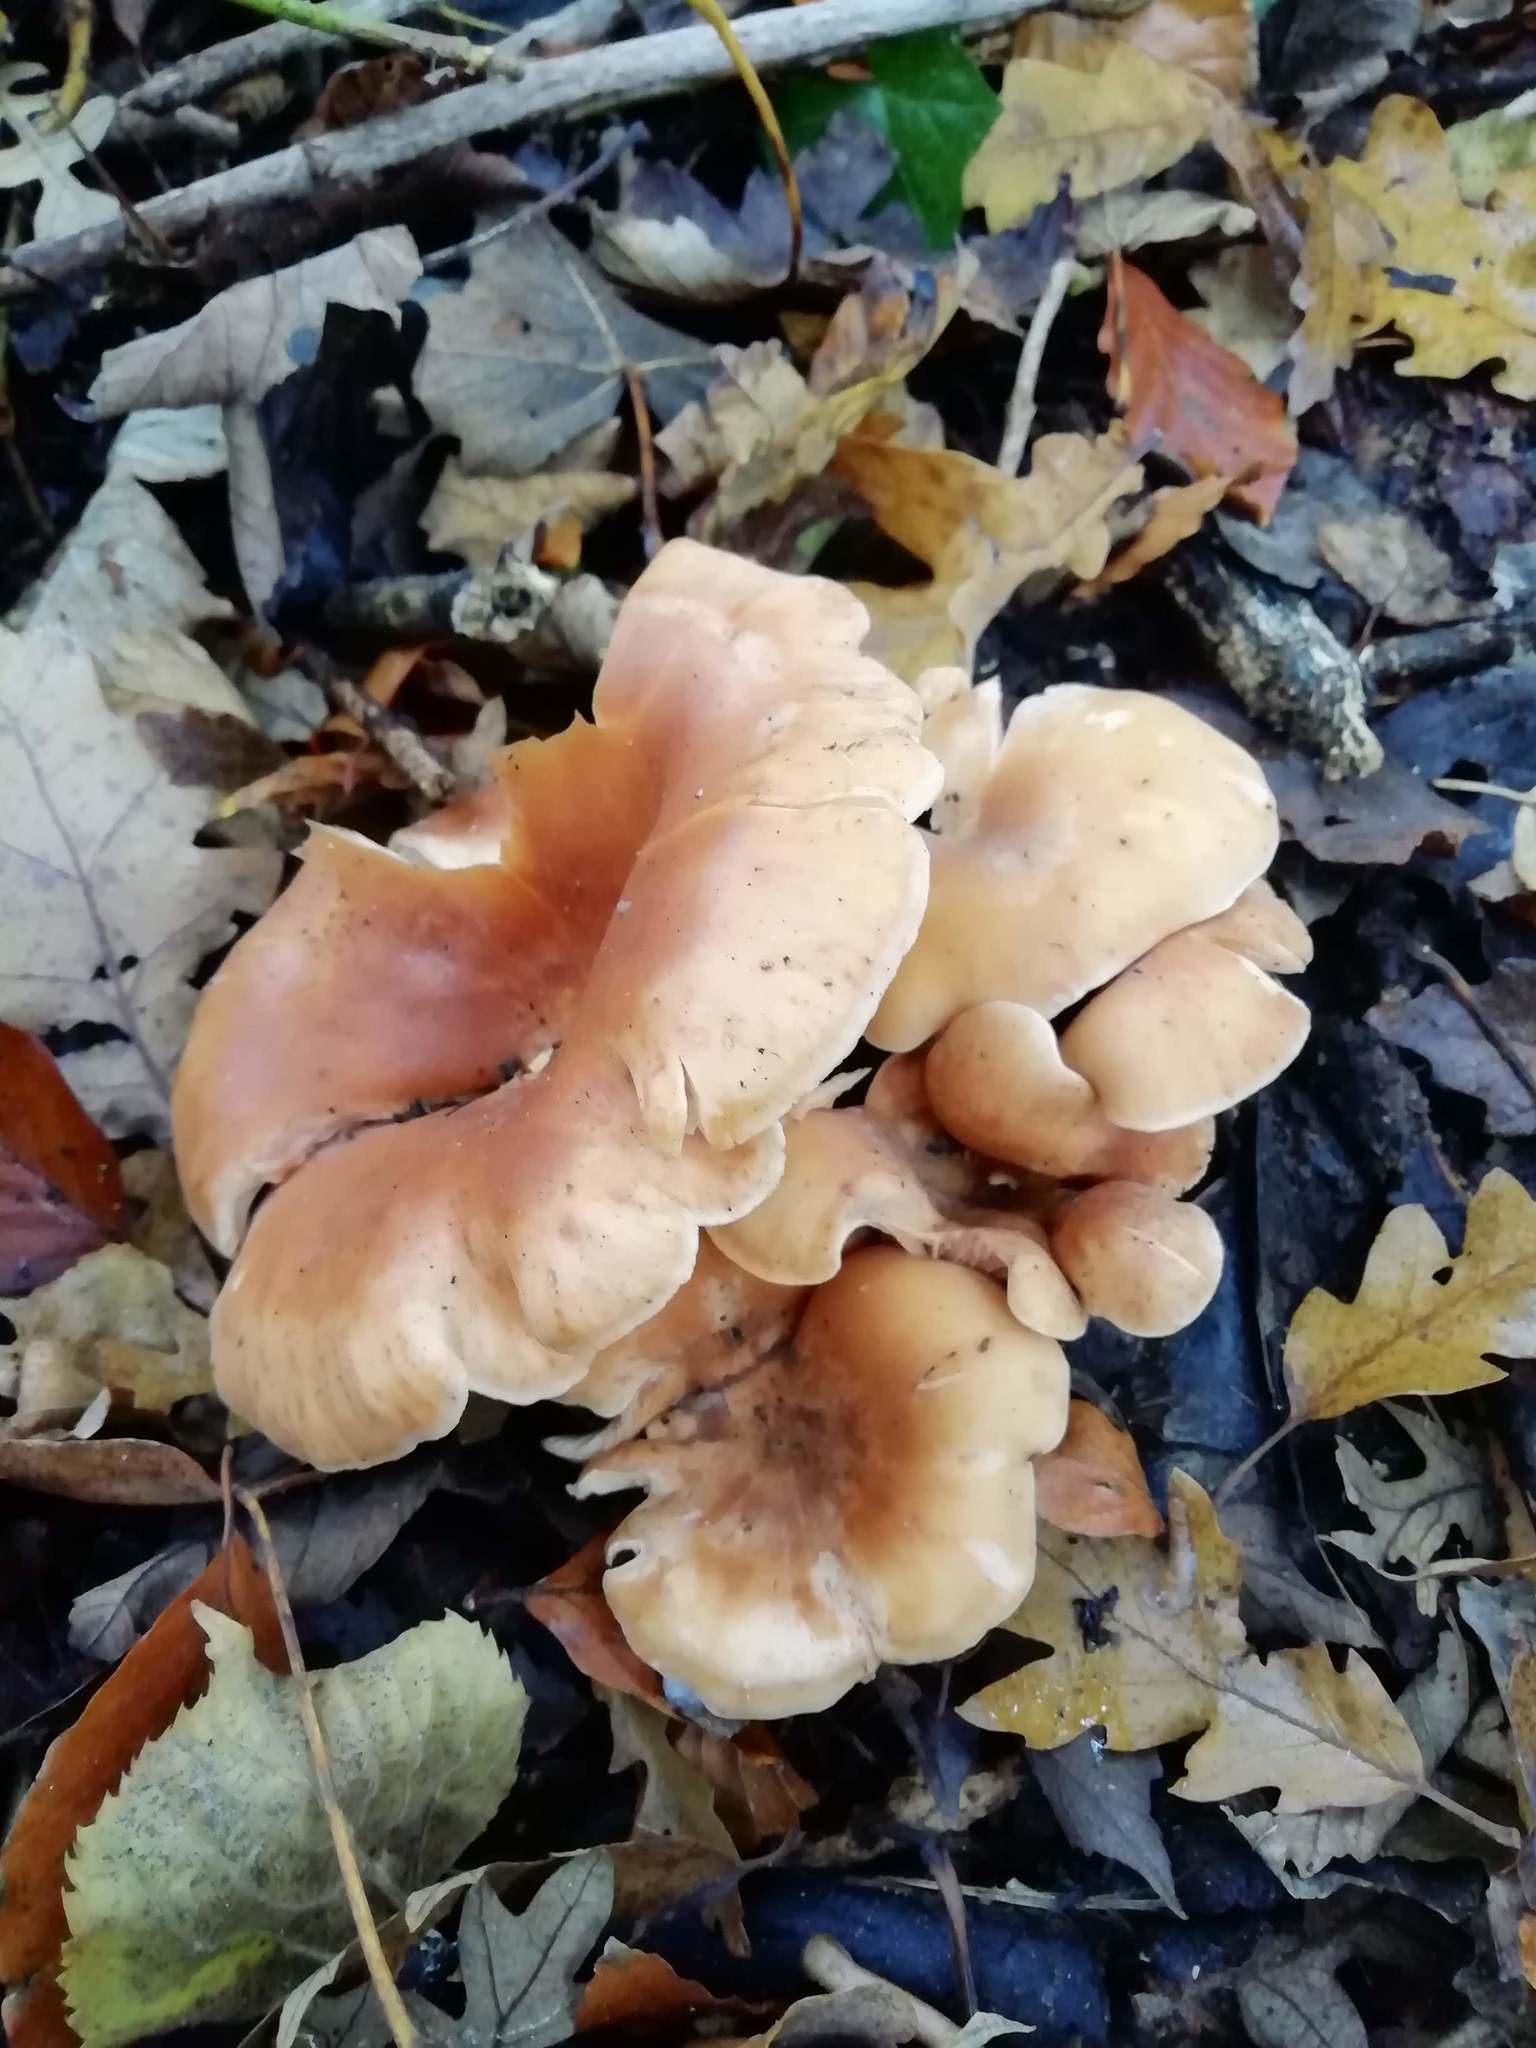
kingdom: Fungi
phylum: Basidiomycota
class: Agaricomycetes
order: Agaricales
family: Pleurotaceae
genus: Pleurotus
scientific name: Pleurotus ostreatus
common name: Oyster mushroom
